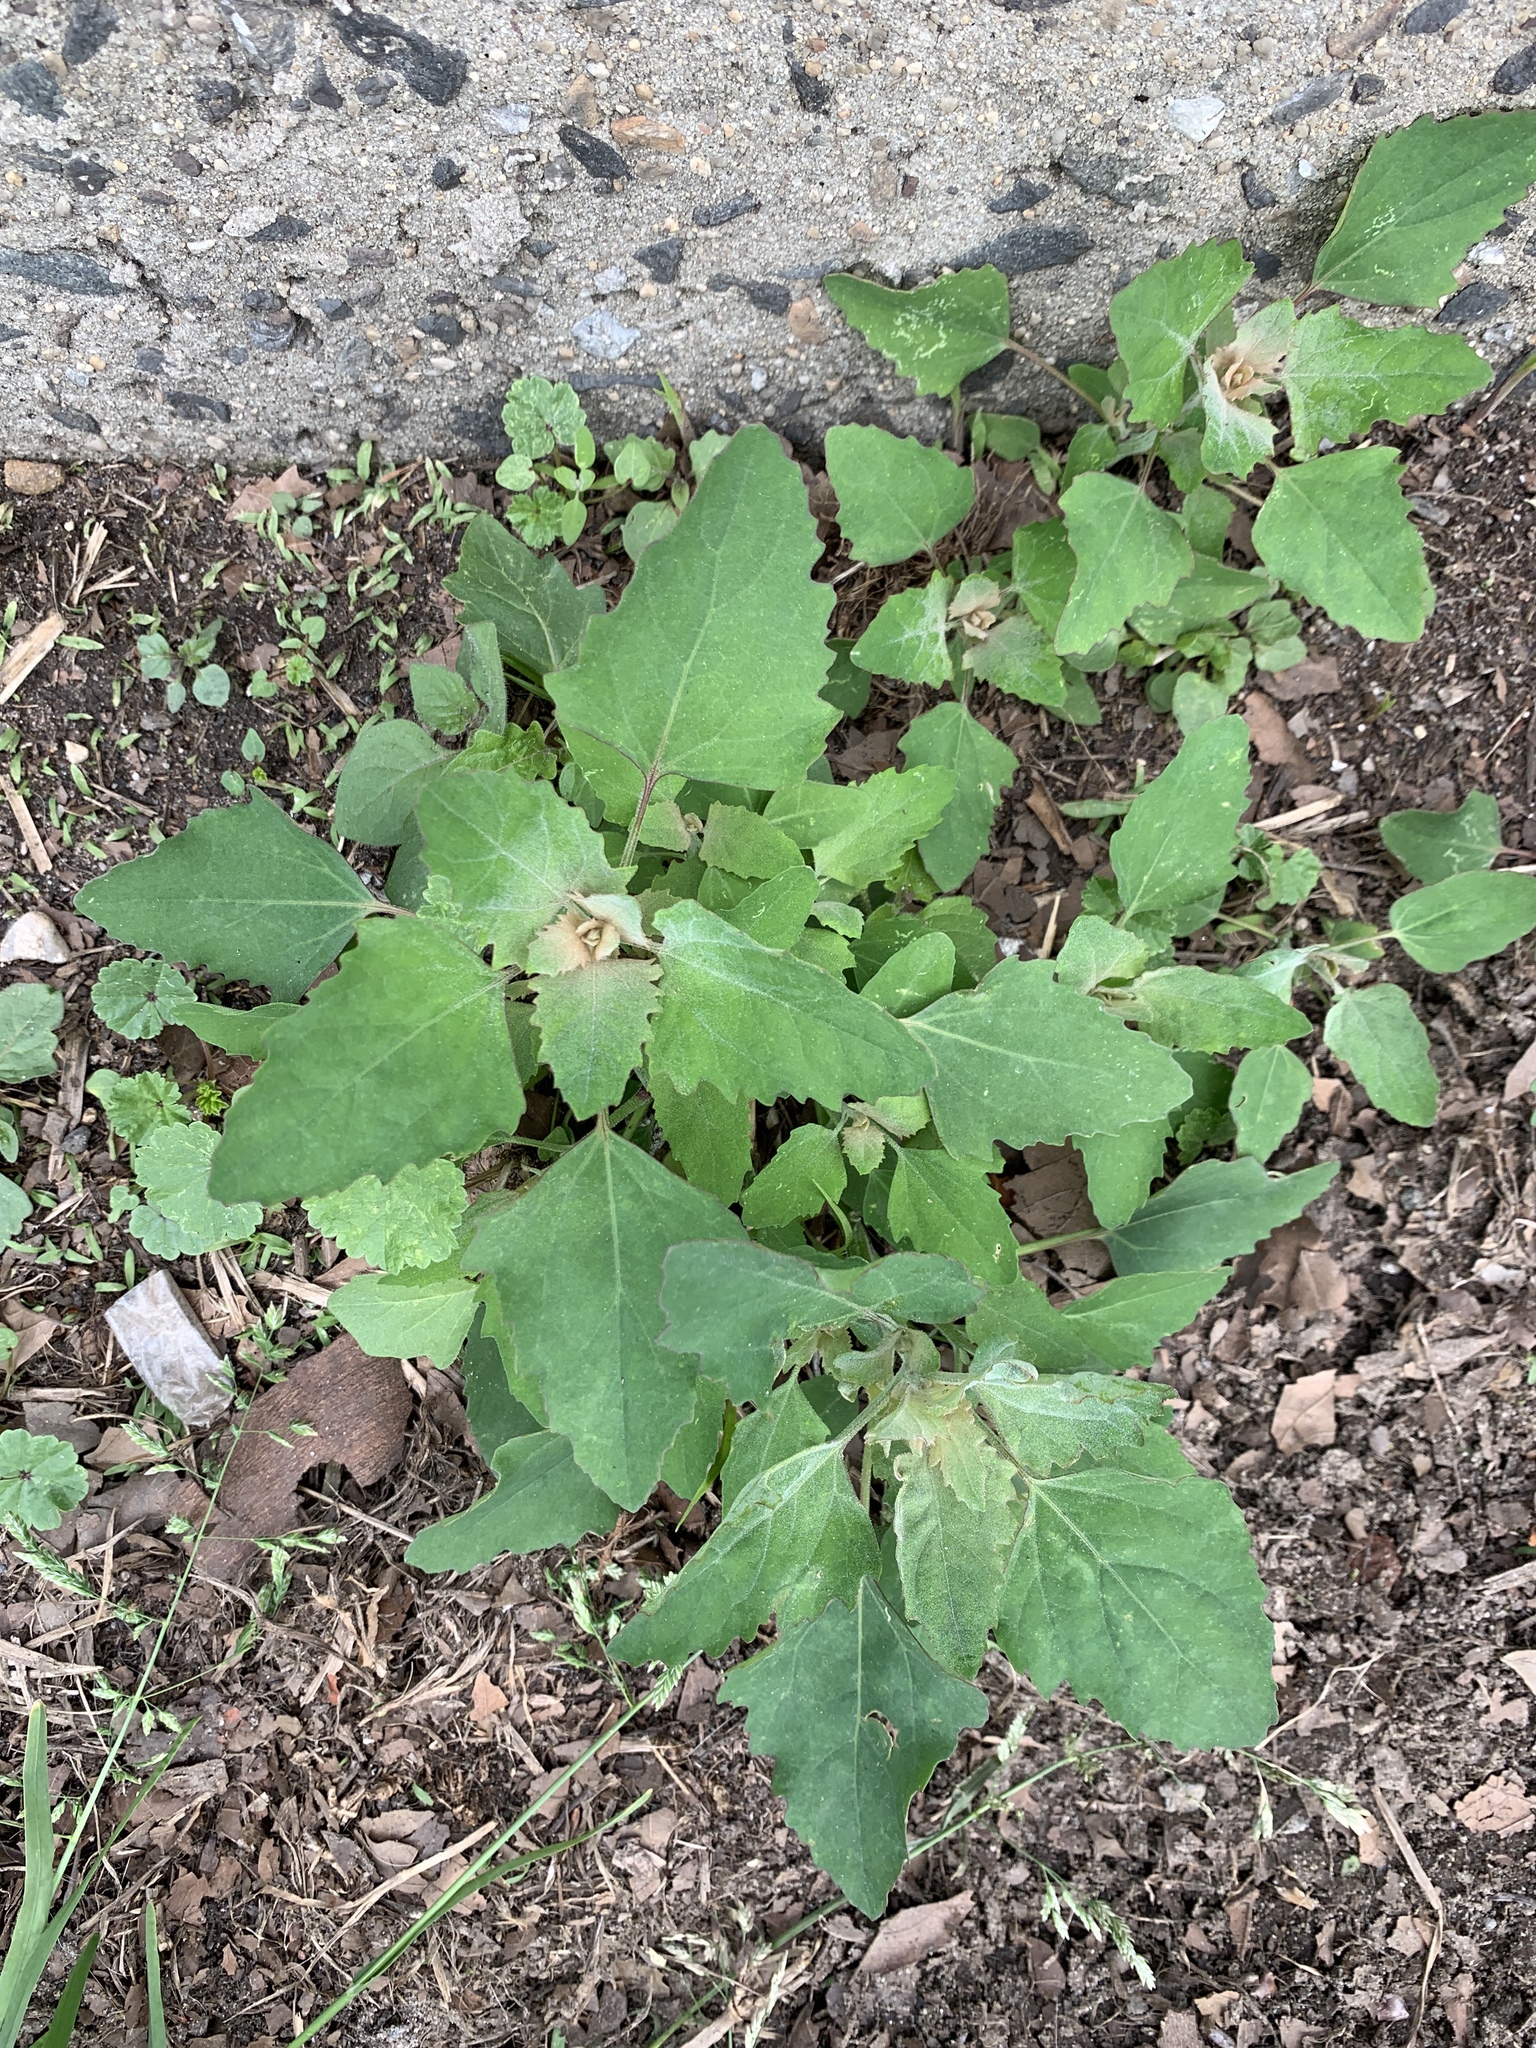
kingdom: Plantae
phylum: Tracheophyta
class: Magnoliopsida
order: Caryophyllales
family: Amaranthaceae
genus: Chenopodium
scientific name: Chenopodium album
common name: Fat-hen
